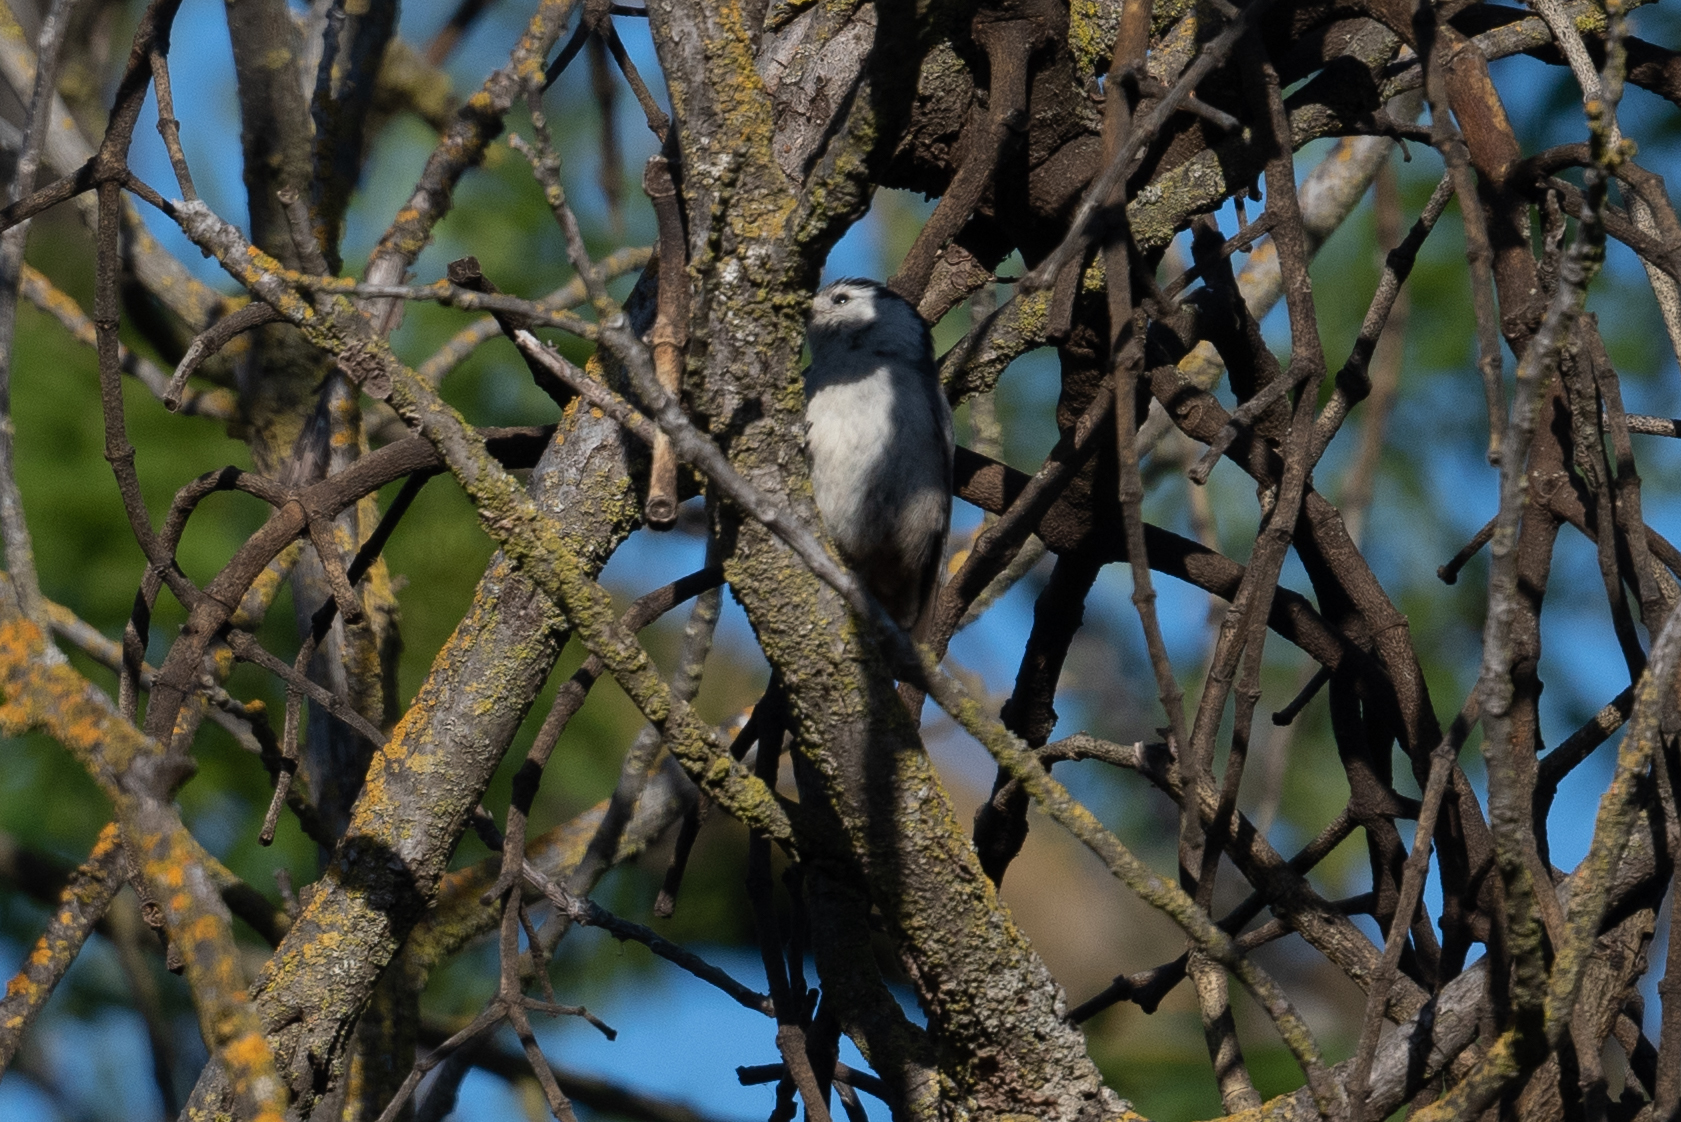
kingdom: Animalia
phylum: Chordata
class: Aves
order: Passeriformes
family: Sittidae
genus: Sitta
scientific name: Sitta carolinensis
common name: White-breasted nuthatch
